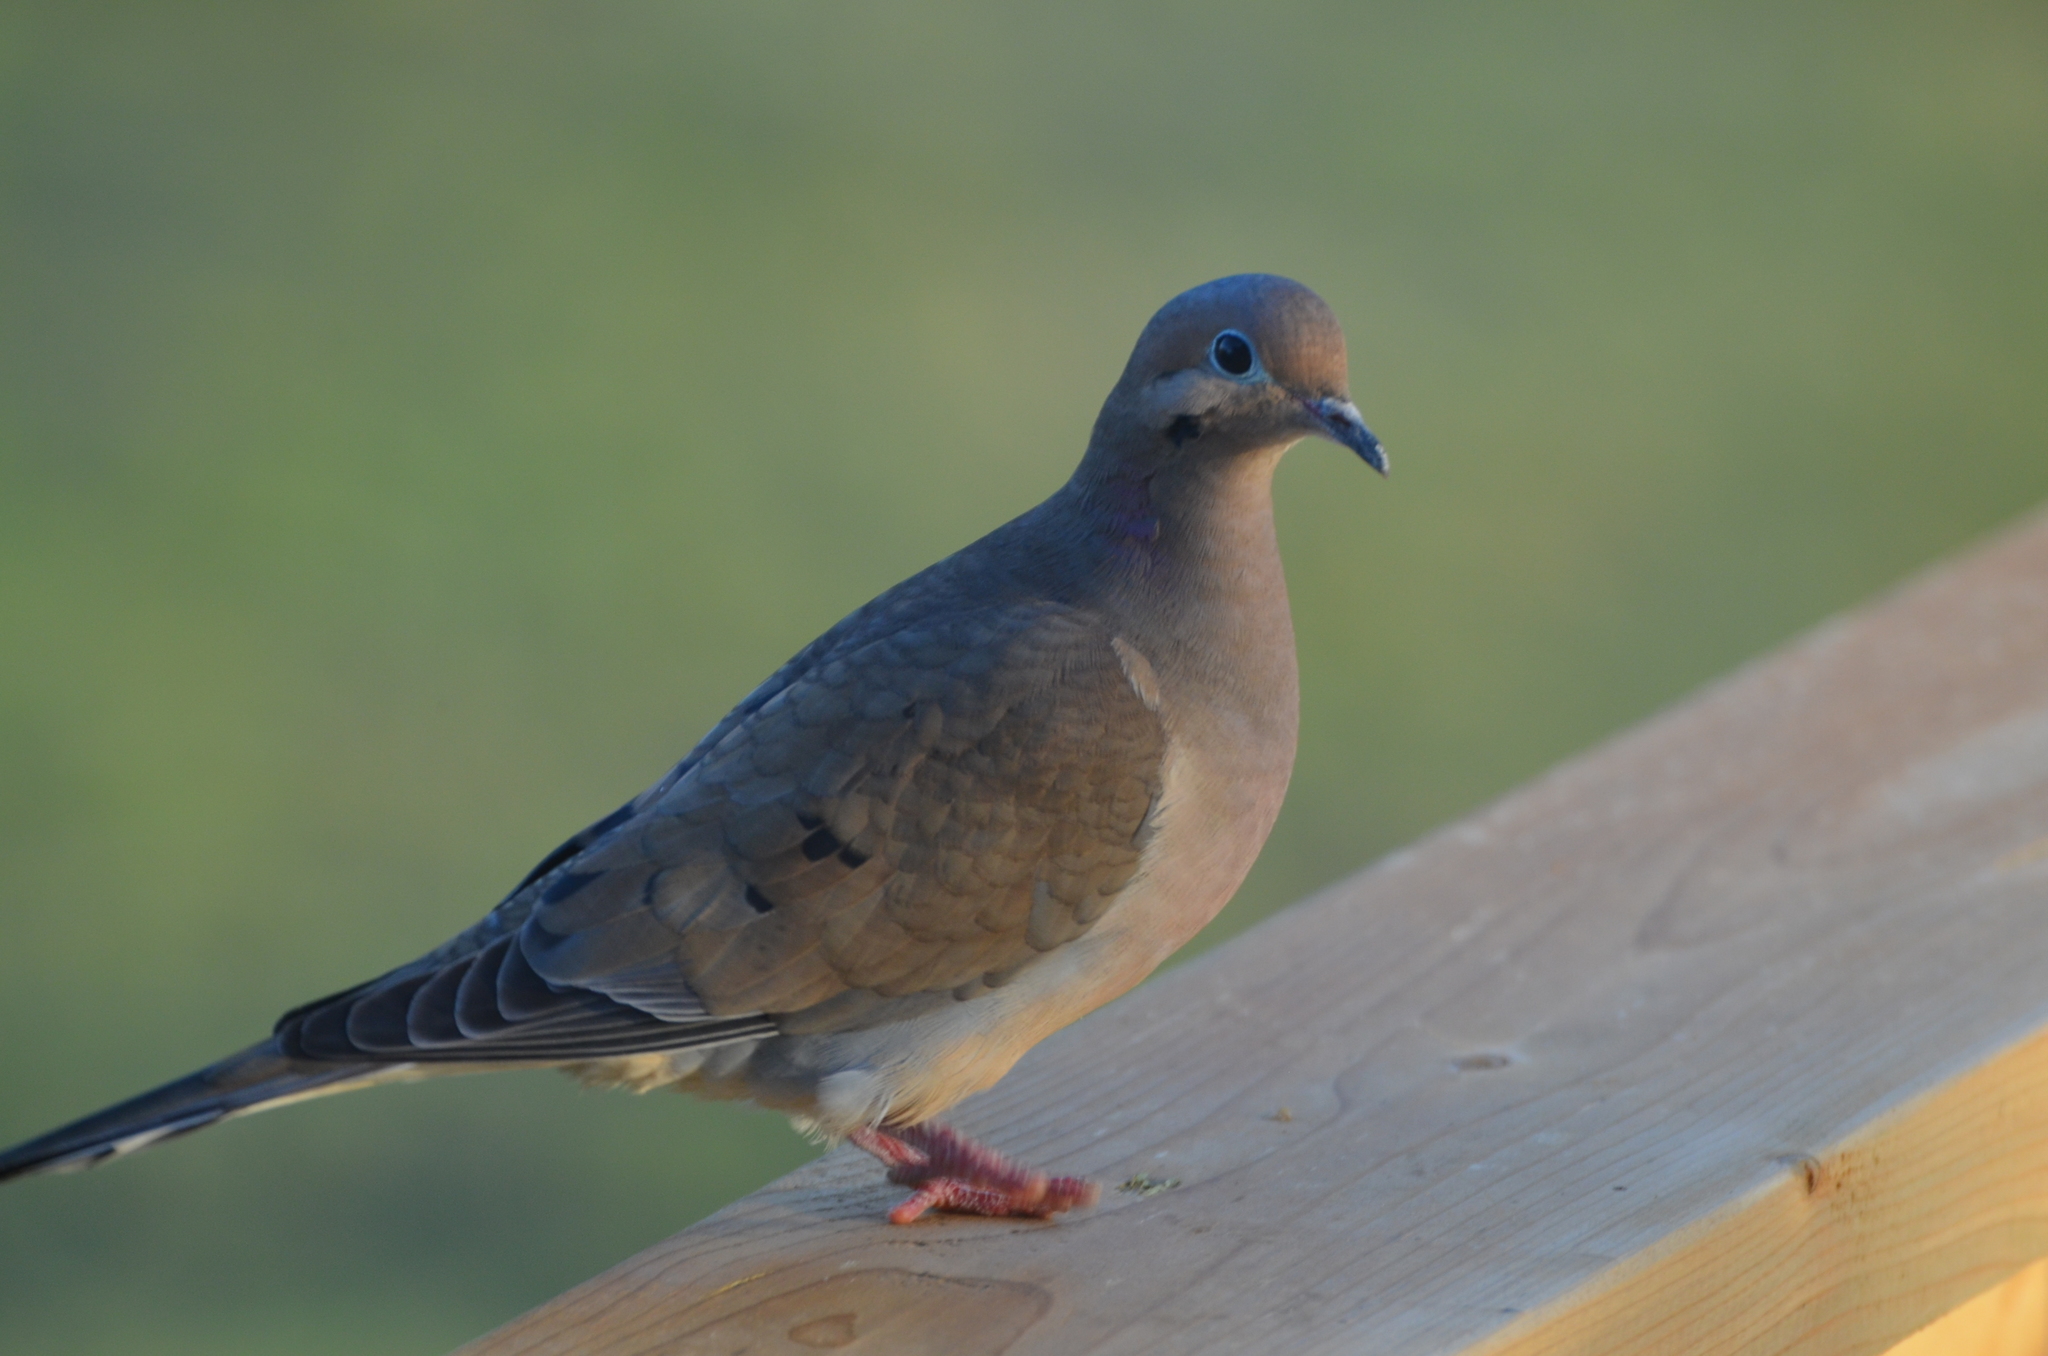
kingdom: Animalia
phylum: Chordata
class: Aves
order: Columbiformes
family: Columbidae
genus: Zenaida
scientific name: Zenaida macroura
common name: Mourning dove
